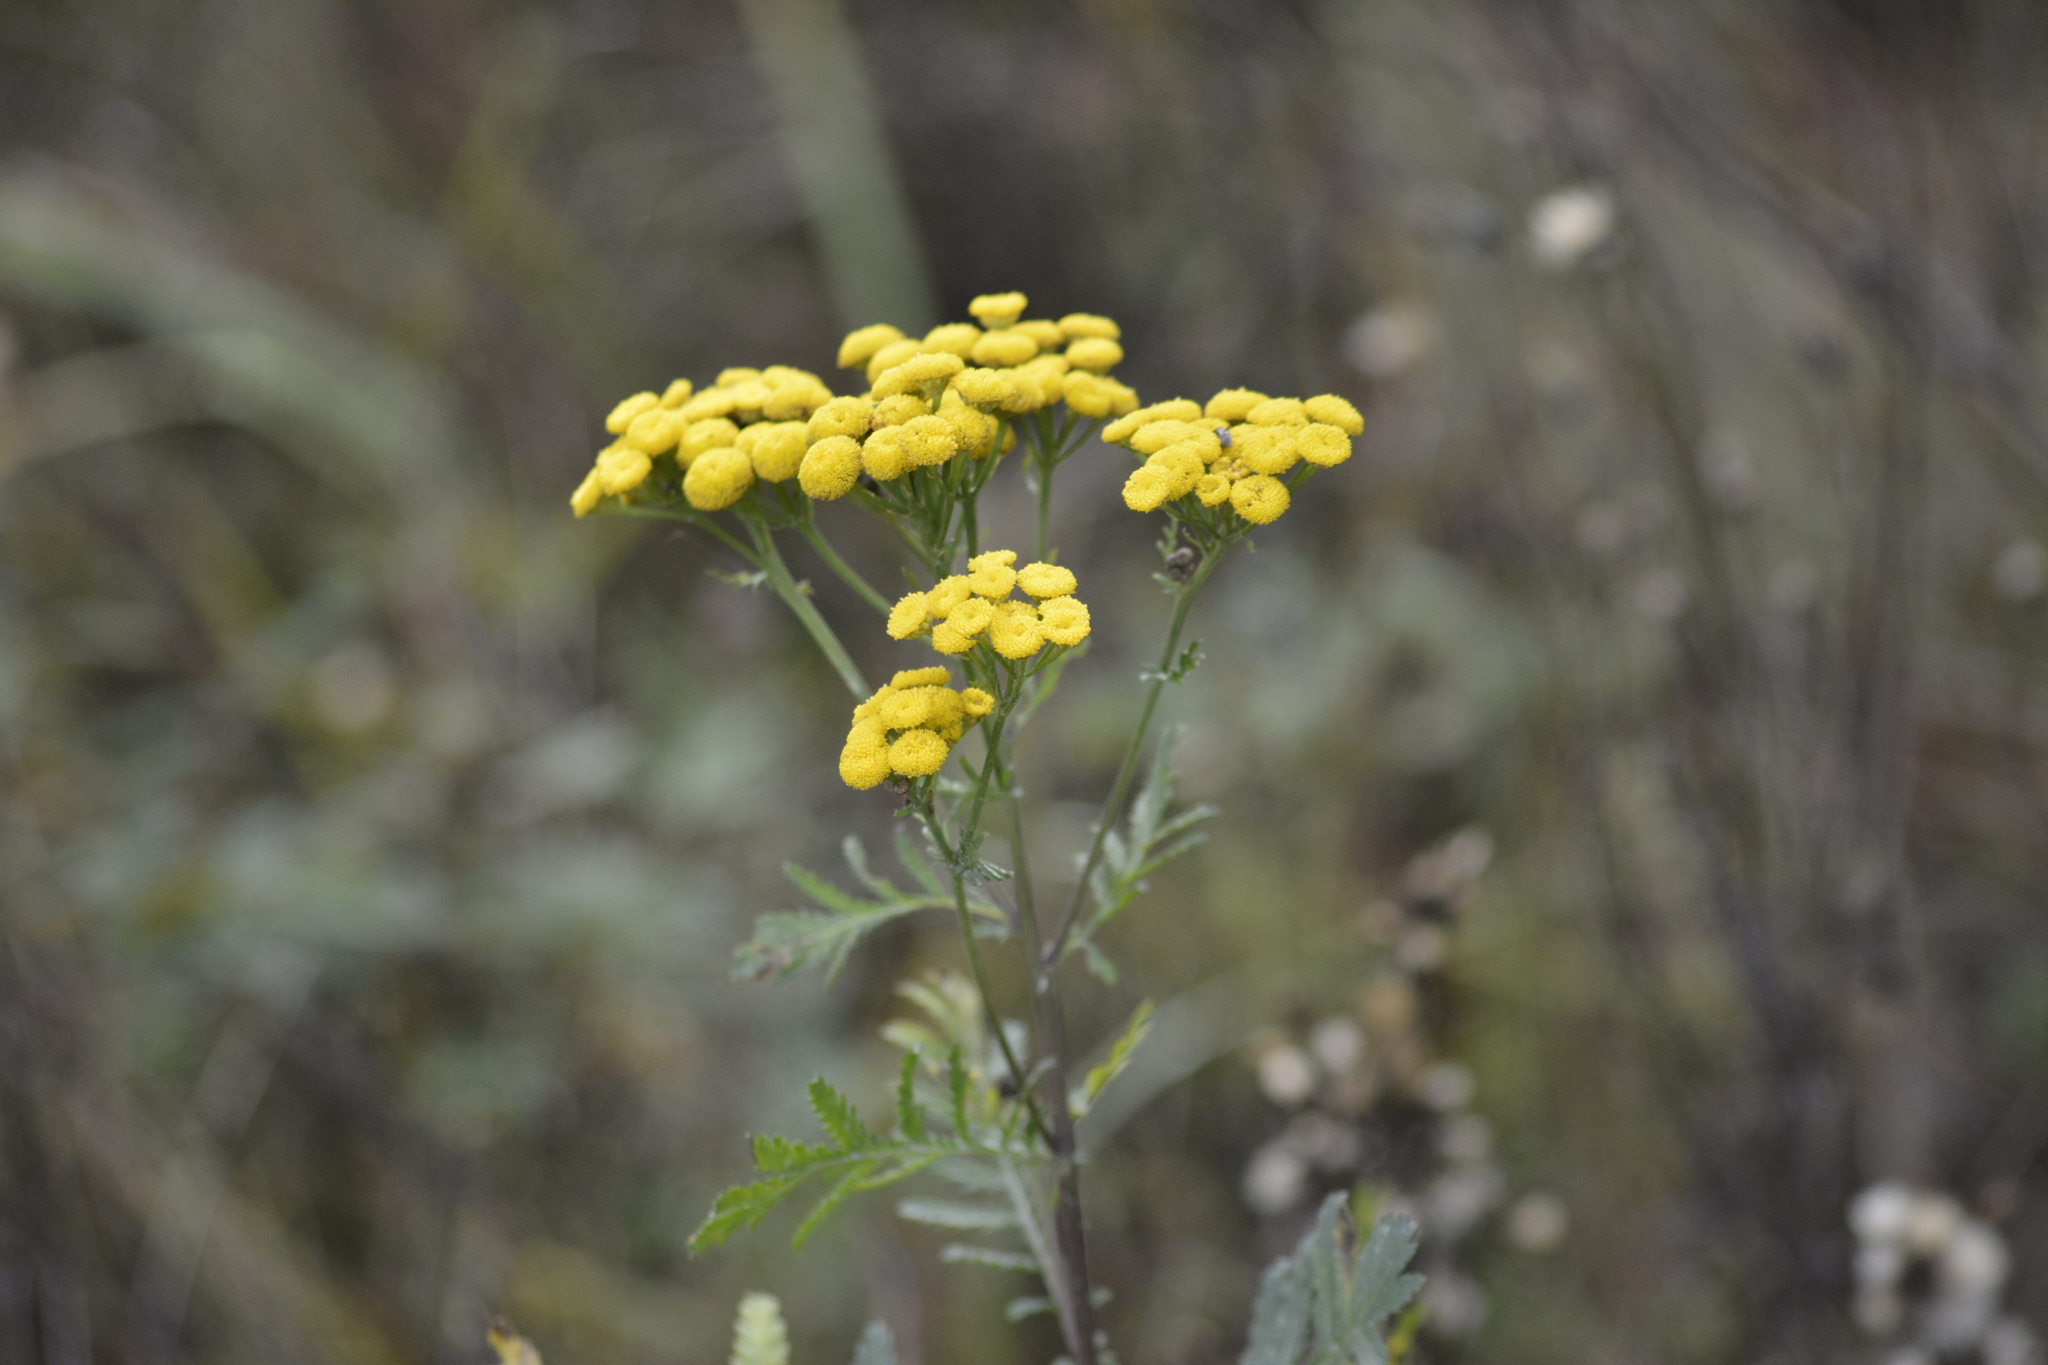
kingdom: Plantae
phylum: Tracheophyta
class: Magnoliopsida
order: Asterales
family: Asteraceae
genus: Tanacetum
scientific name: Tanacetum vulgare
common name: Common tansy
